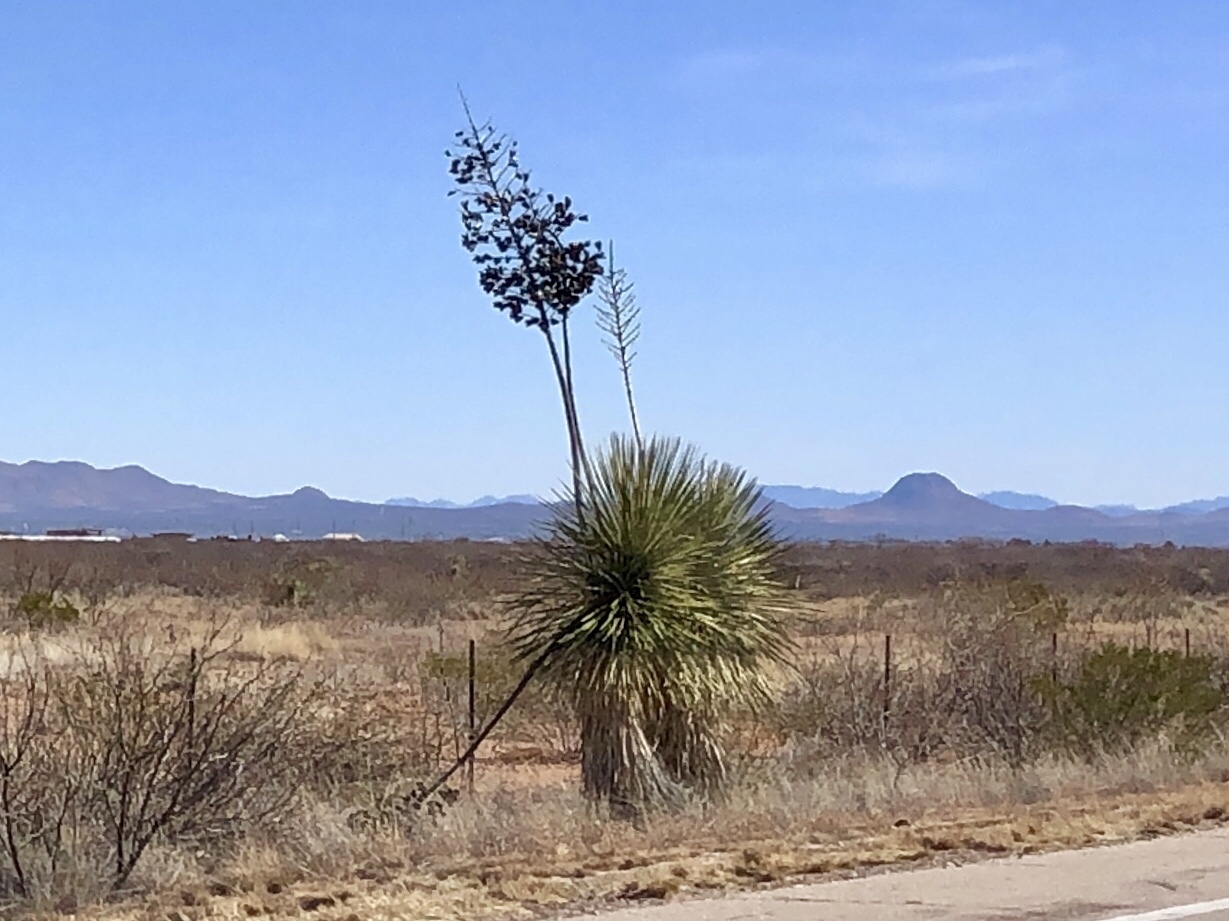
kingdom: Plantae
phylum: Tracheophyta
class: Liliopsida
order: Asparagales
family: Asparagaceae
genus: Yucca
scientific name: Yucca elata
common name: Palmella
